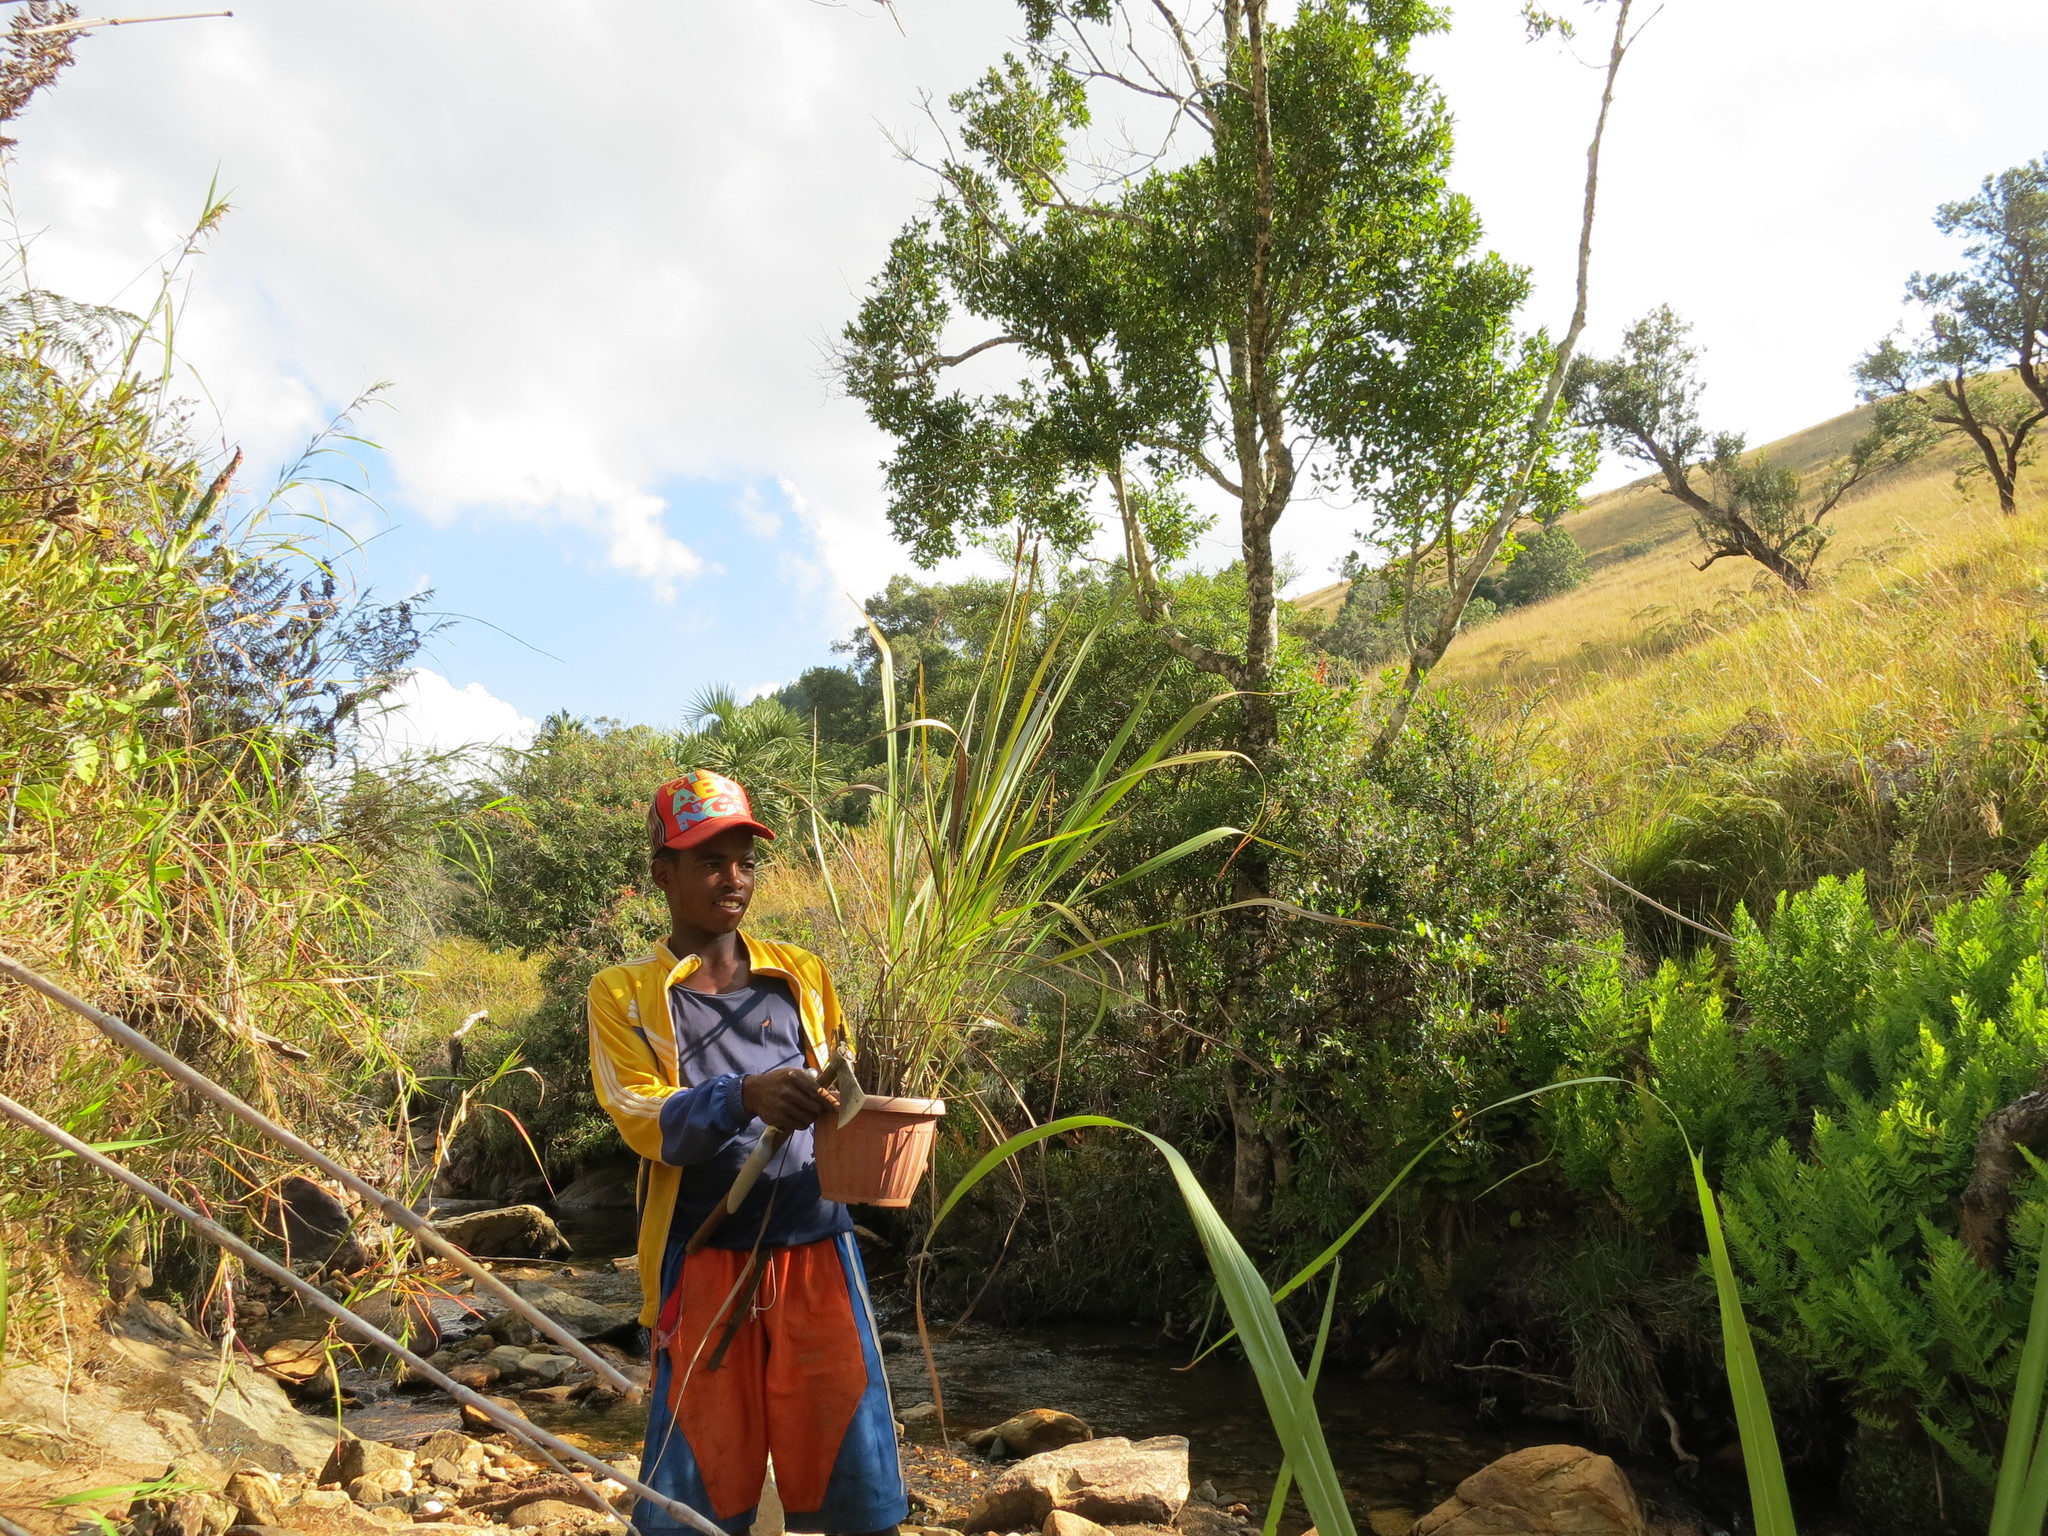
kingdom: Plantae
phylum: Tracheophyta
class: Liliopsida
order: Poales
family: Poaceae
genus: Lasiorhachis
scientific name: Lasiorhachis perrieri
